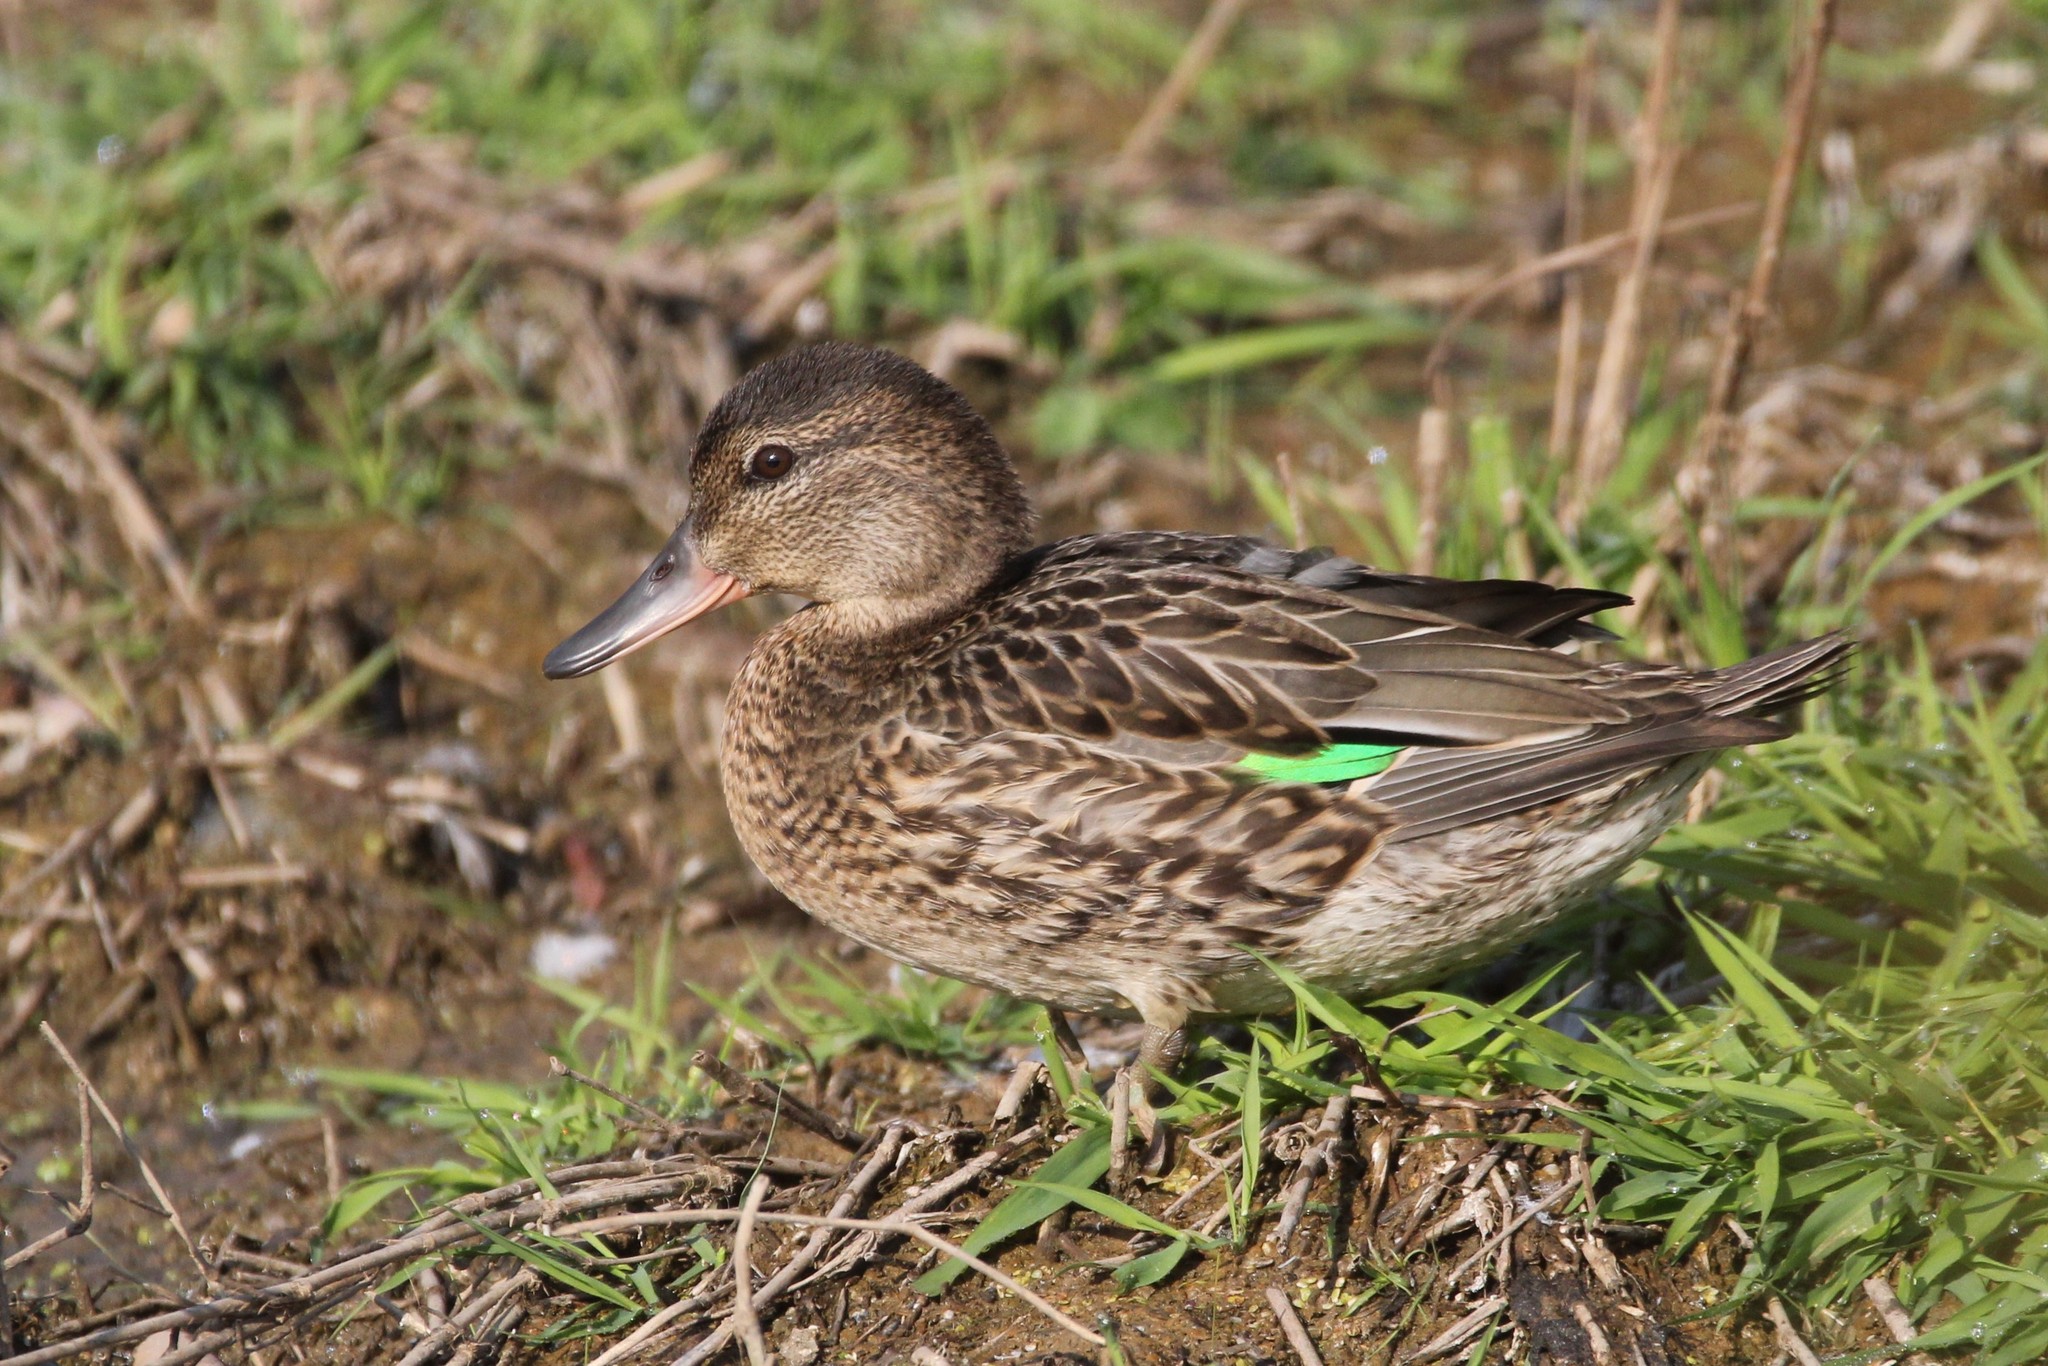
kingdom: Animalia
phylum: Chordata
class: Aves
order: Anseriformes
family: Anatidae
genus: Anas
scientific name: Anas crecca
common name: Eurasian teal
